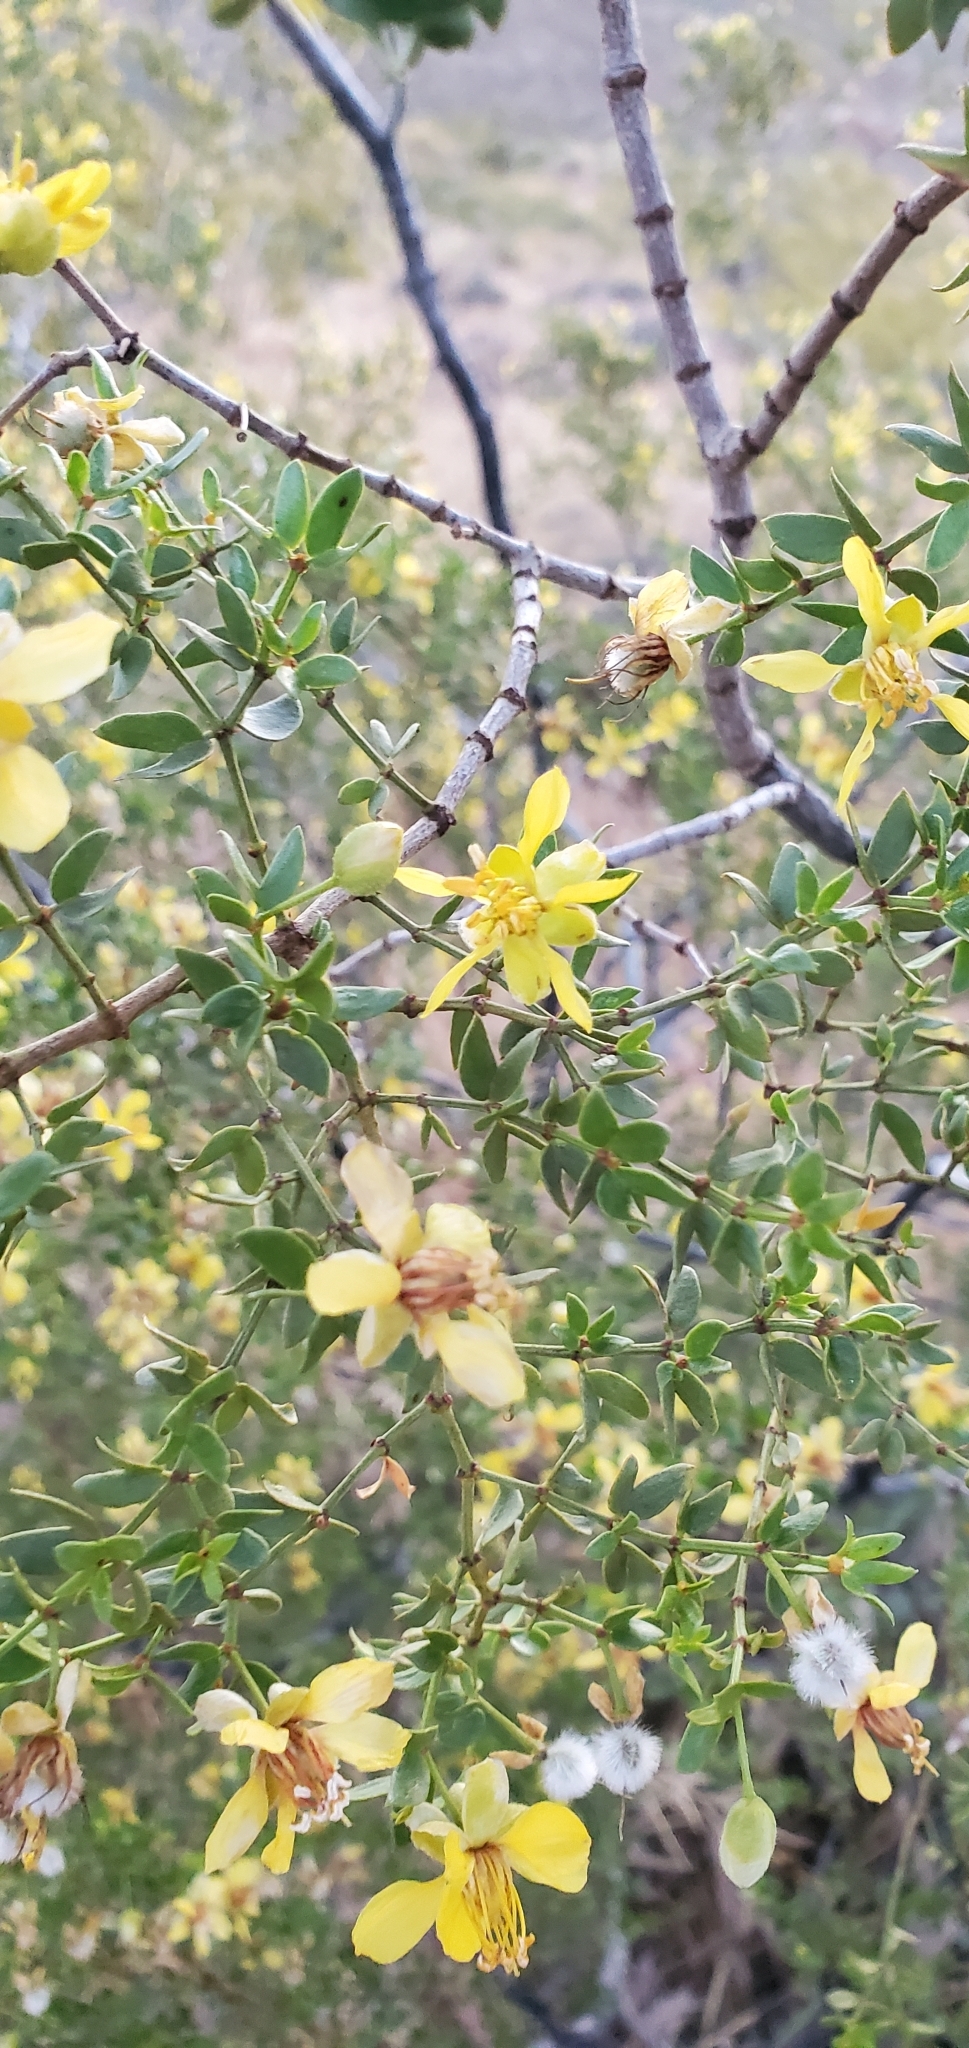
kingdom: Plantae
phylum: Tracheophyta
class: Magnoliopsida
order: Zygophyllales
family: Zygophyllaceae
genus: Larrea
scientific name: Larrea tridentata
